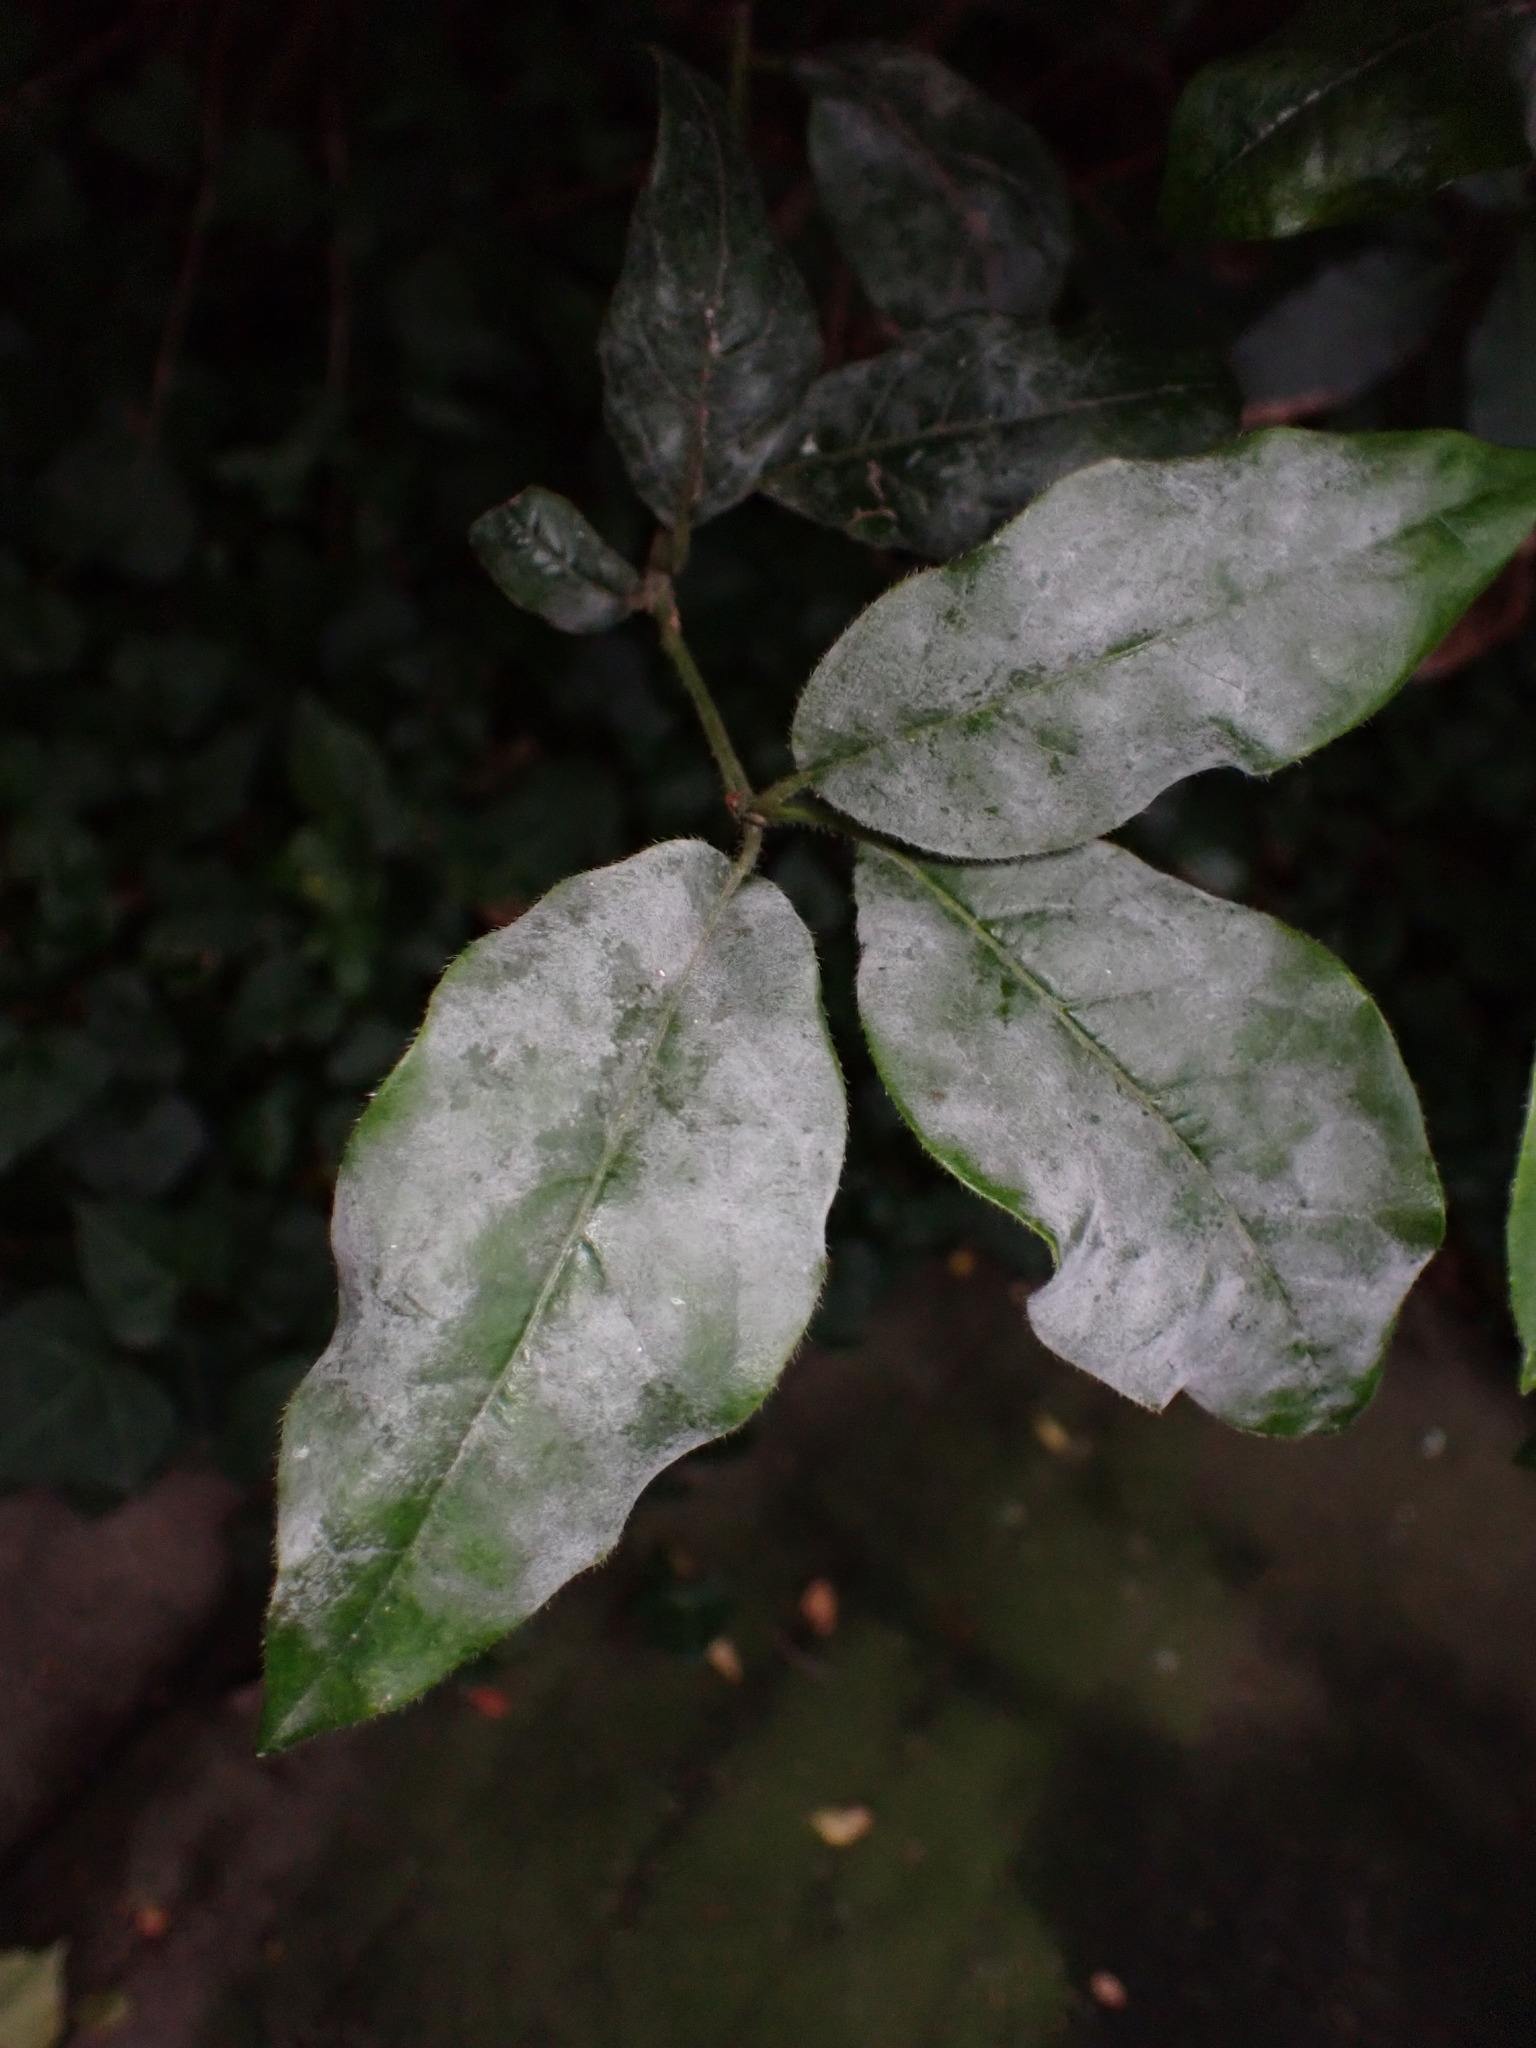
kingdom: Fungi
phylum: Ascomycota
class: Leotiomycetes
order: Helotiales
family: Erysiphaceae
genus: Erysiphe
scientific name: Erysiphe viburniphila
